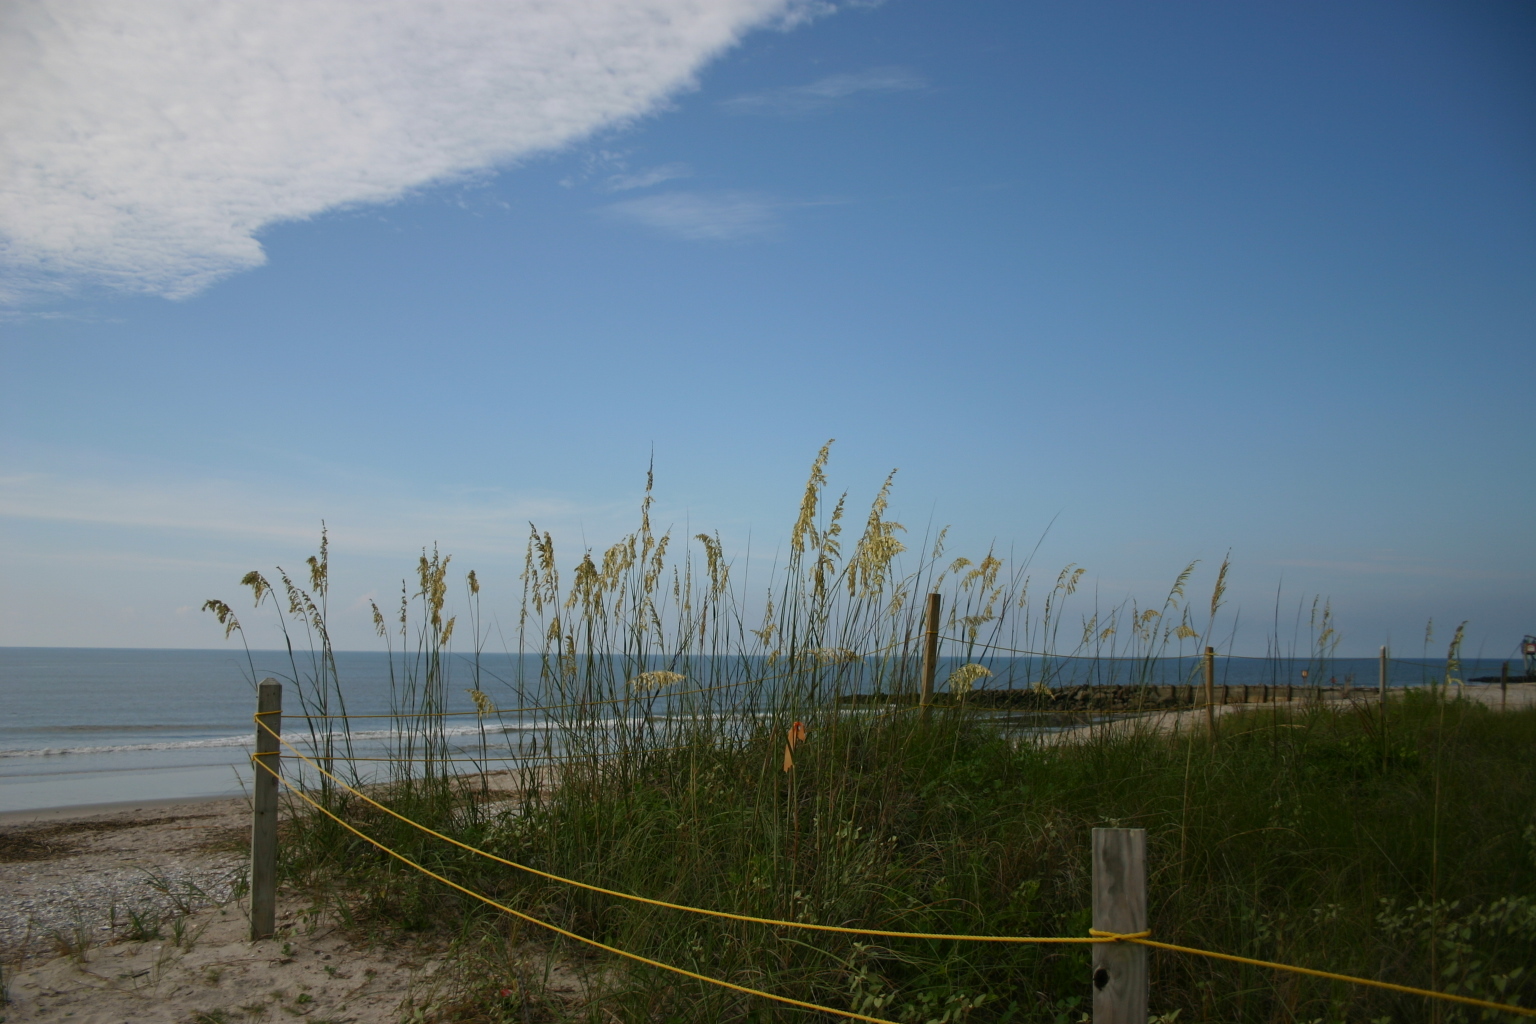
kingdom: Plantae
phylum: Tracheophyta
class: Liliopsida
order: Poales
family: Poaceae
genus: Uniola
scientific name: Uniola paniculata
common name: Seaside-oats
